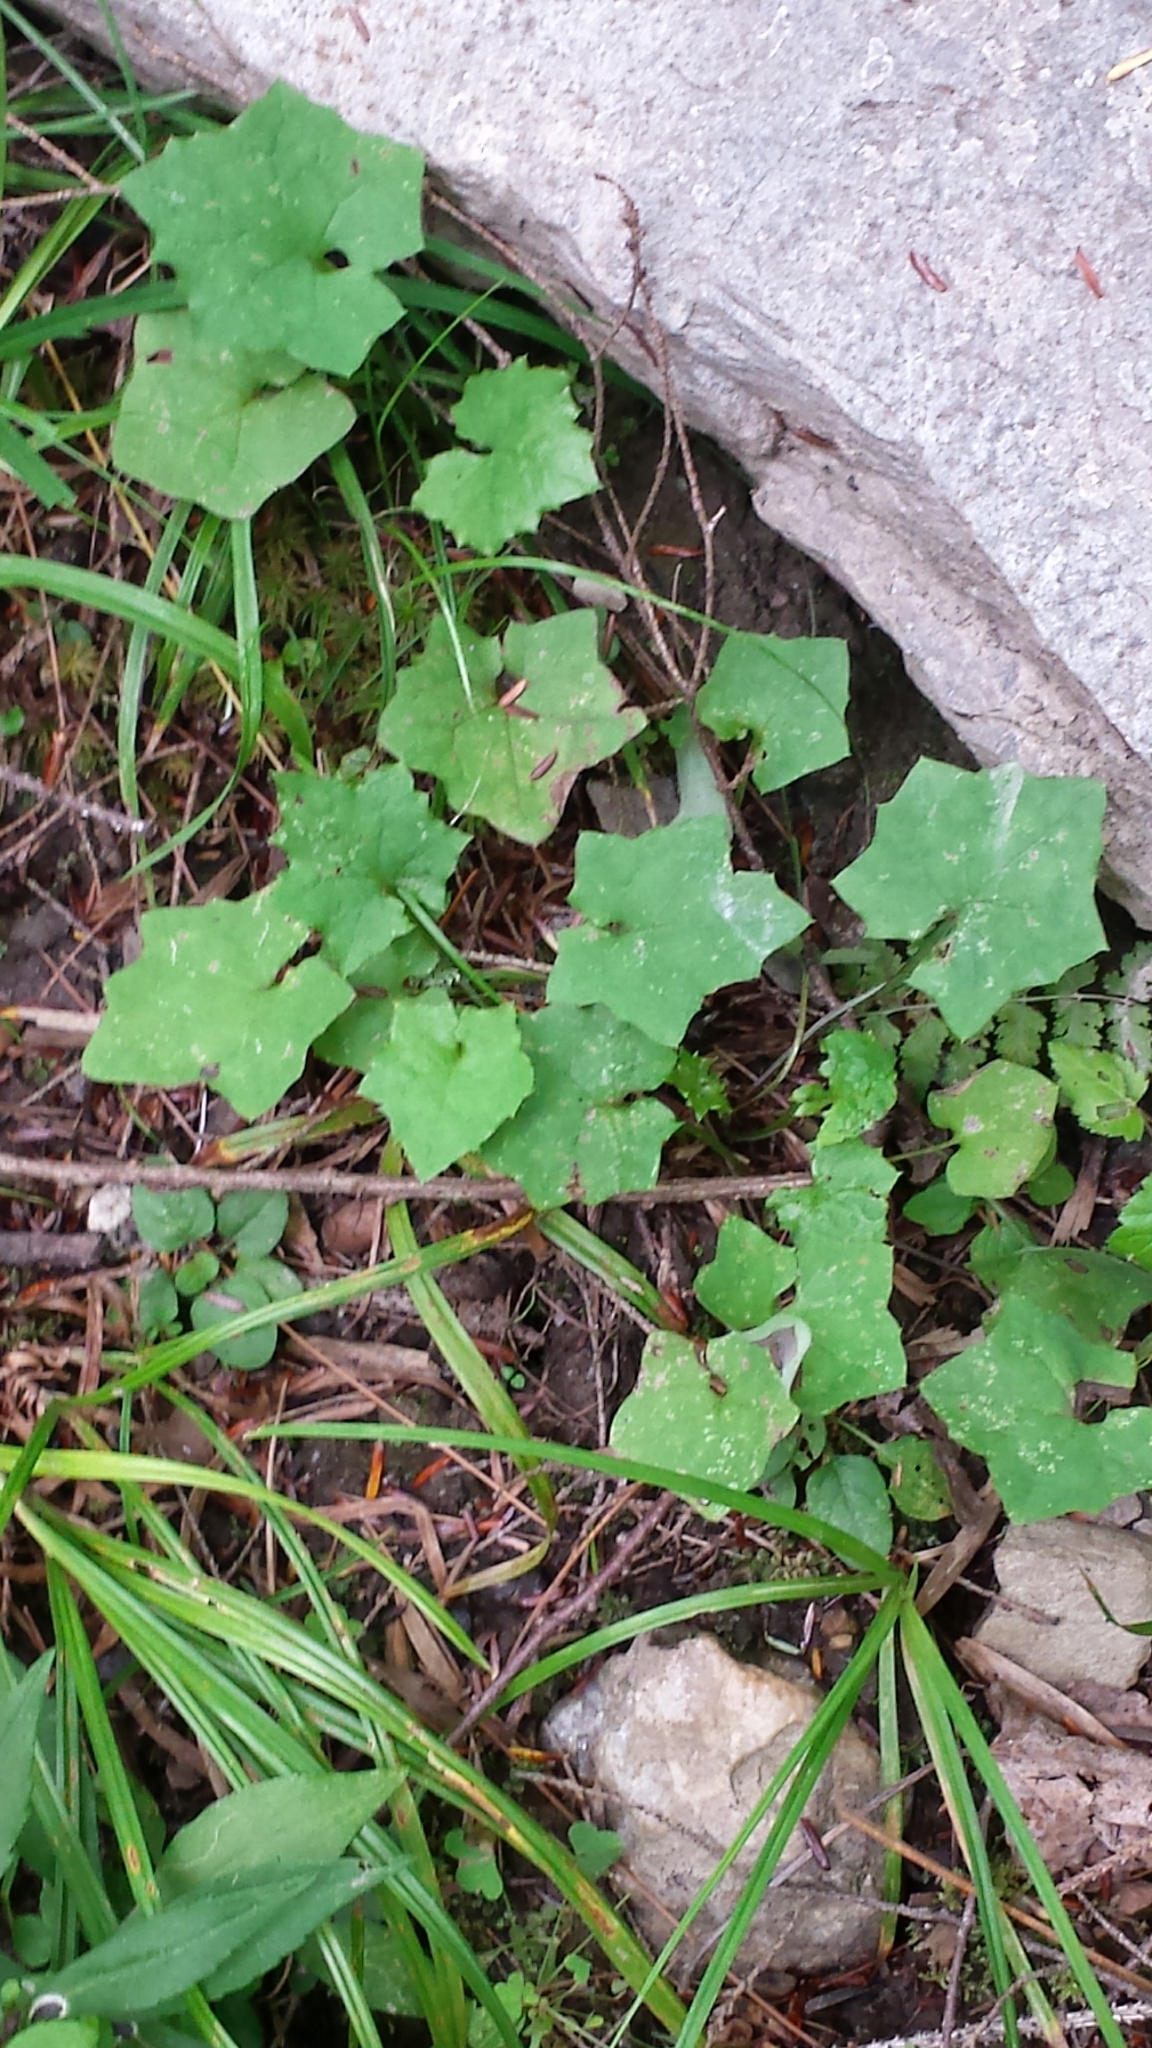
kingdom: Plantae
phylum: Tracheophyta
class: Magnoliopsida
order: Asterales
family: Asteraceae
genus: Mycelis
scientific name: Mycelis muralis
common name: Wall lettuce
